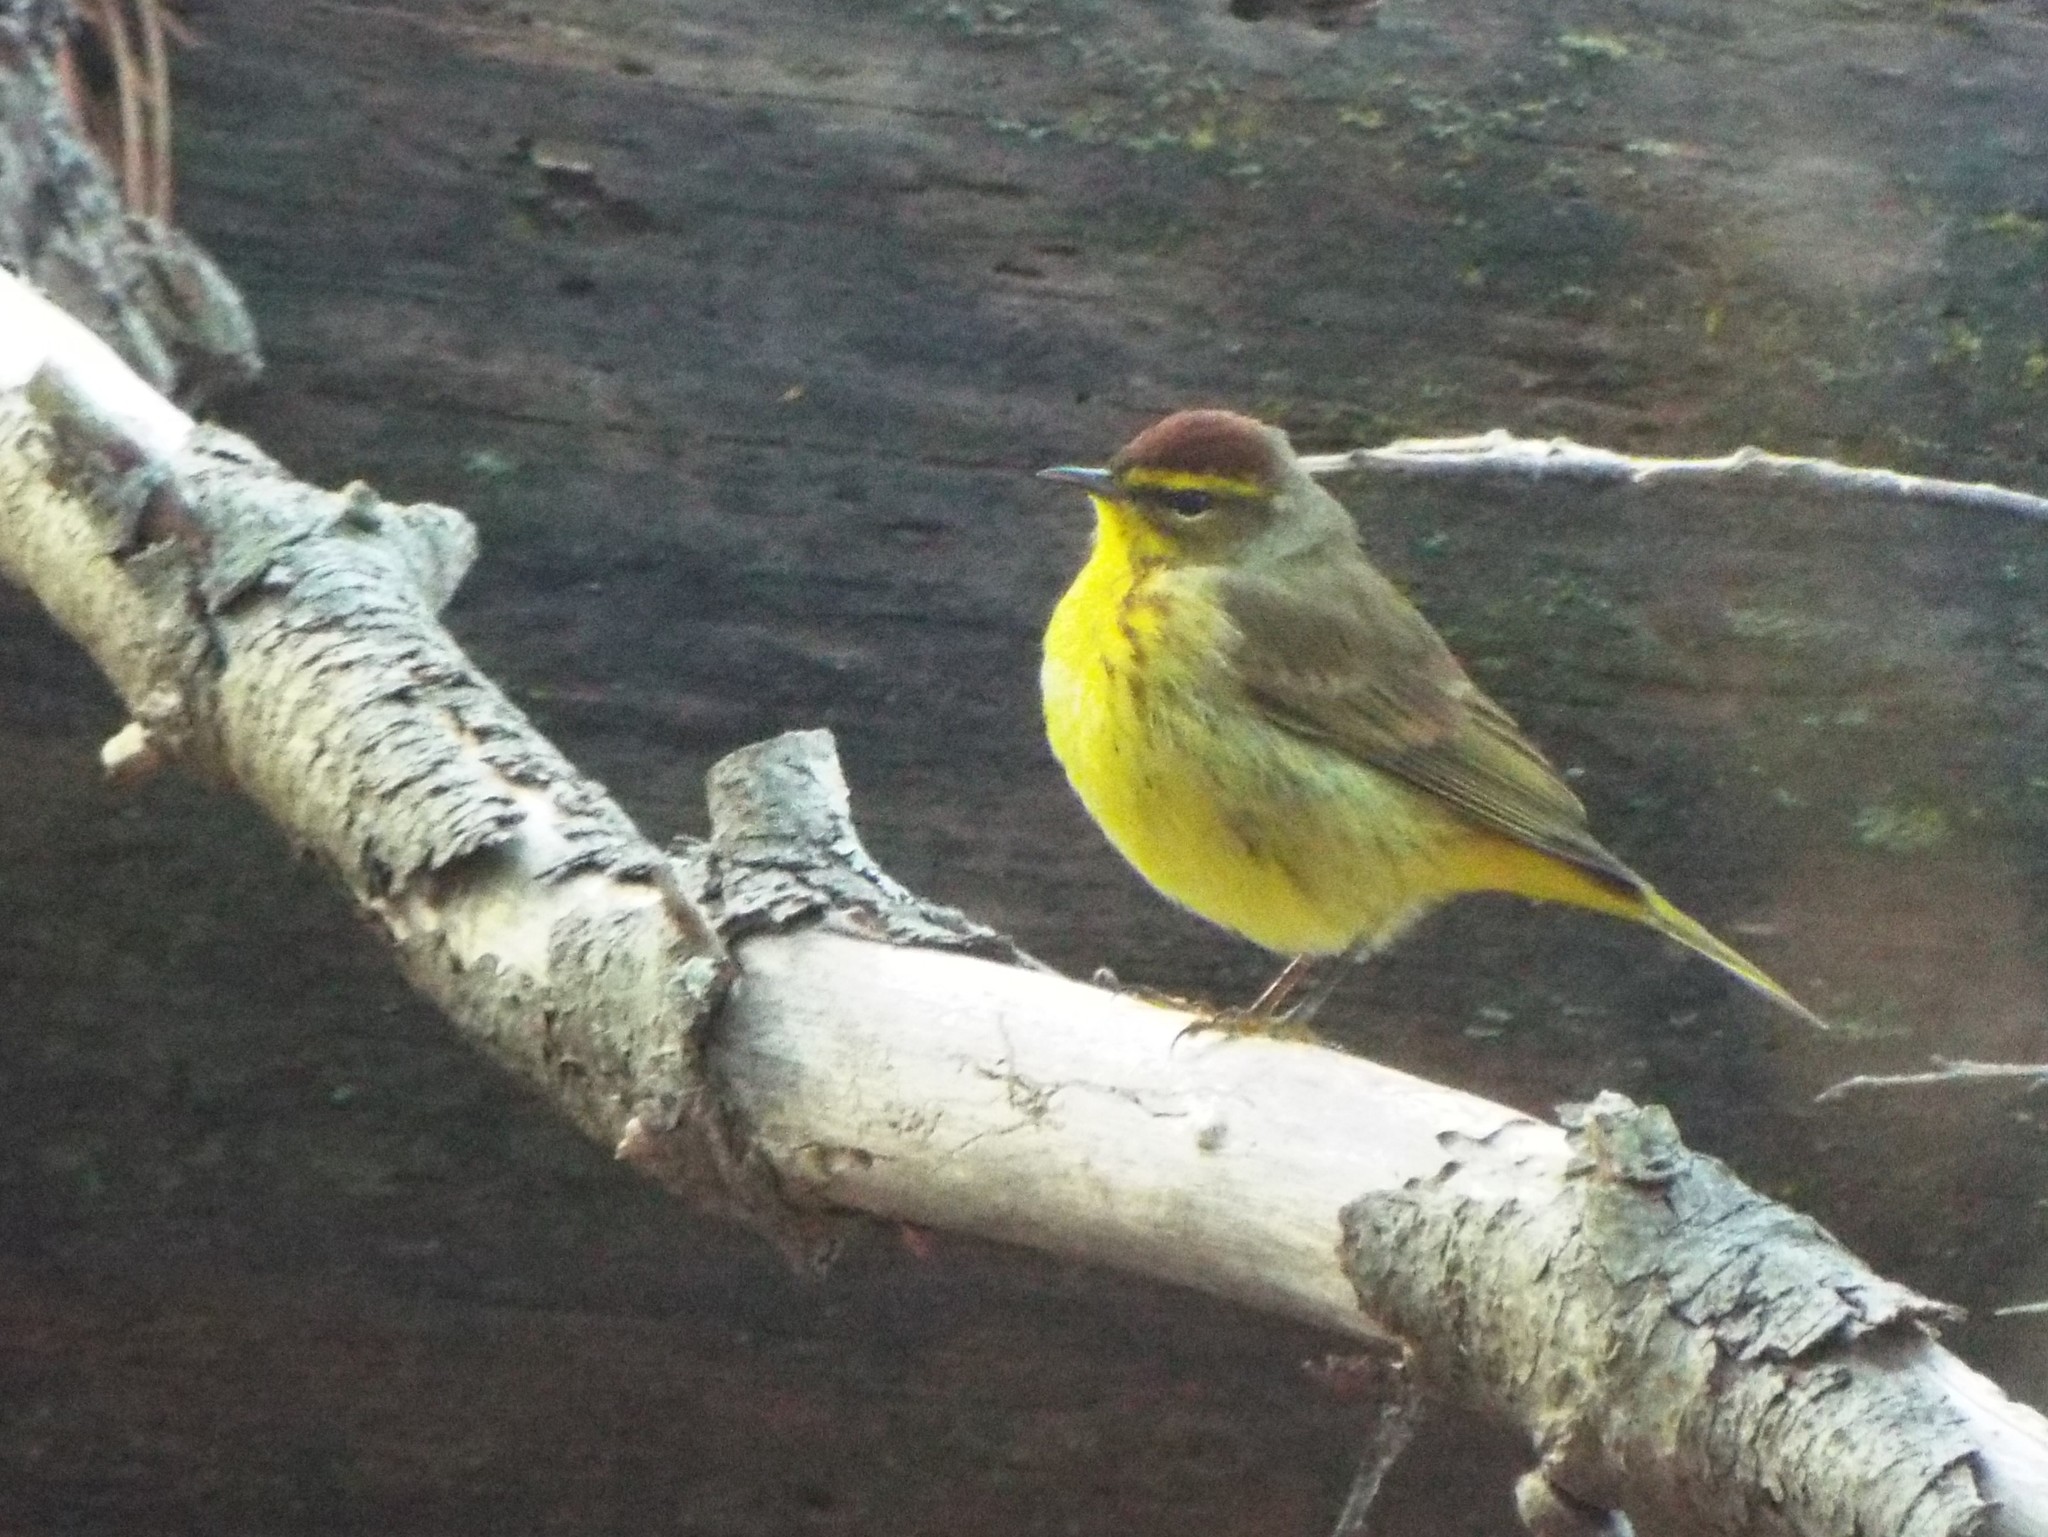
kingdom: Animalia
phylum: Chordata
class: Aves
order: Passeriformes
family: Parulidae
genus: Setophaga
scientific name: Setophaga palmarum
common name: Palm warbler
